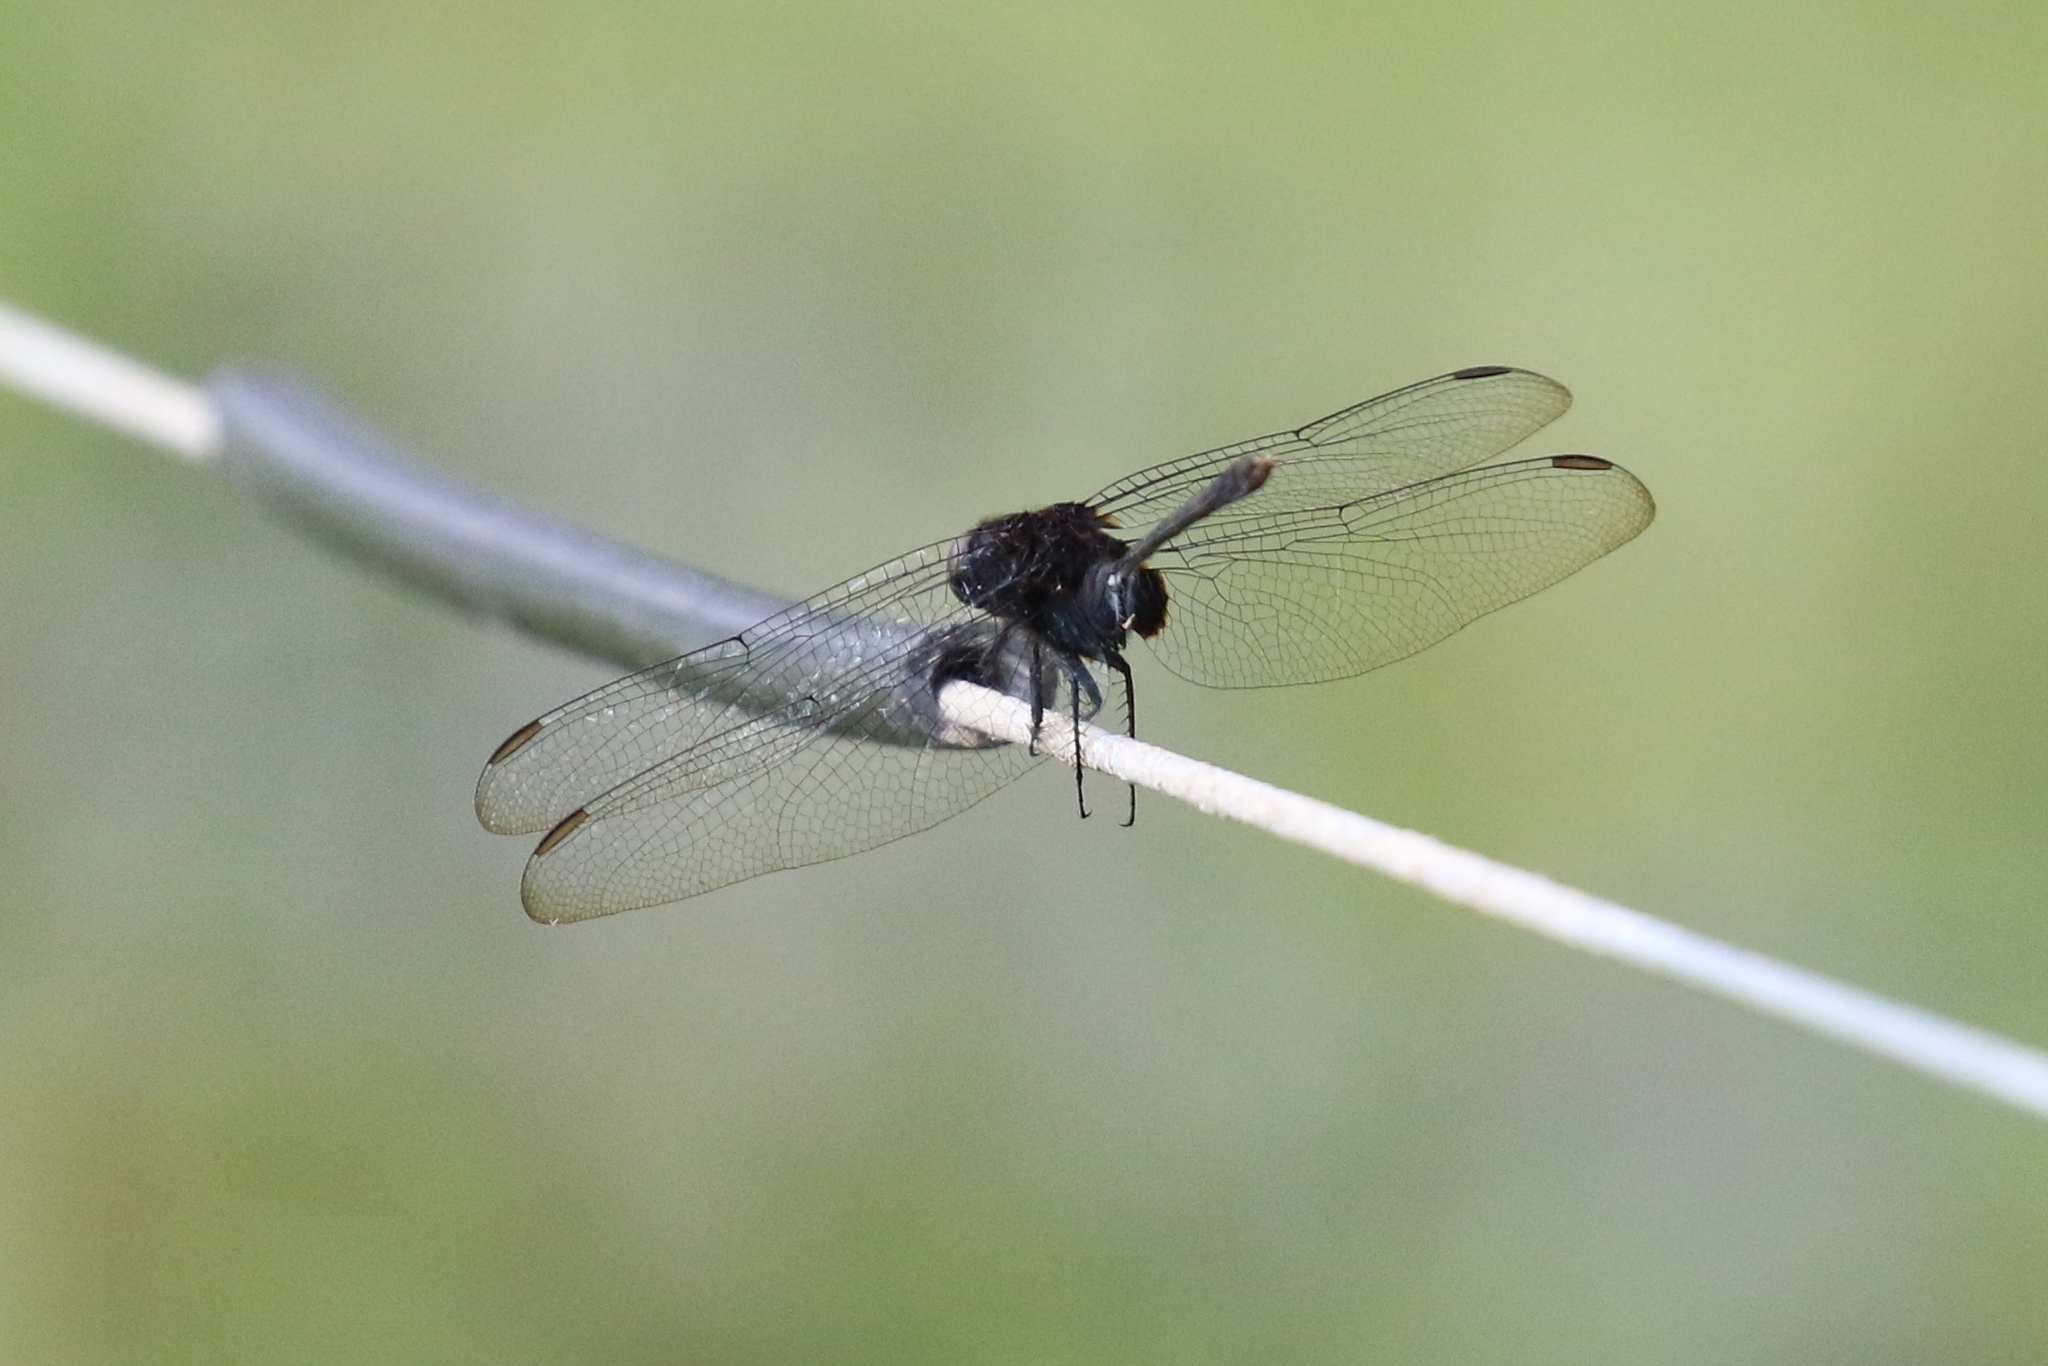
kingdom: Animalia
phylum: Arthropoda
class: Insecta
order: Odonata
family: Libellulidae
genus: Erythemis
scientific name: Erythemis plebeja
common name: Pin-tailed pondhawk
